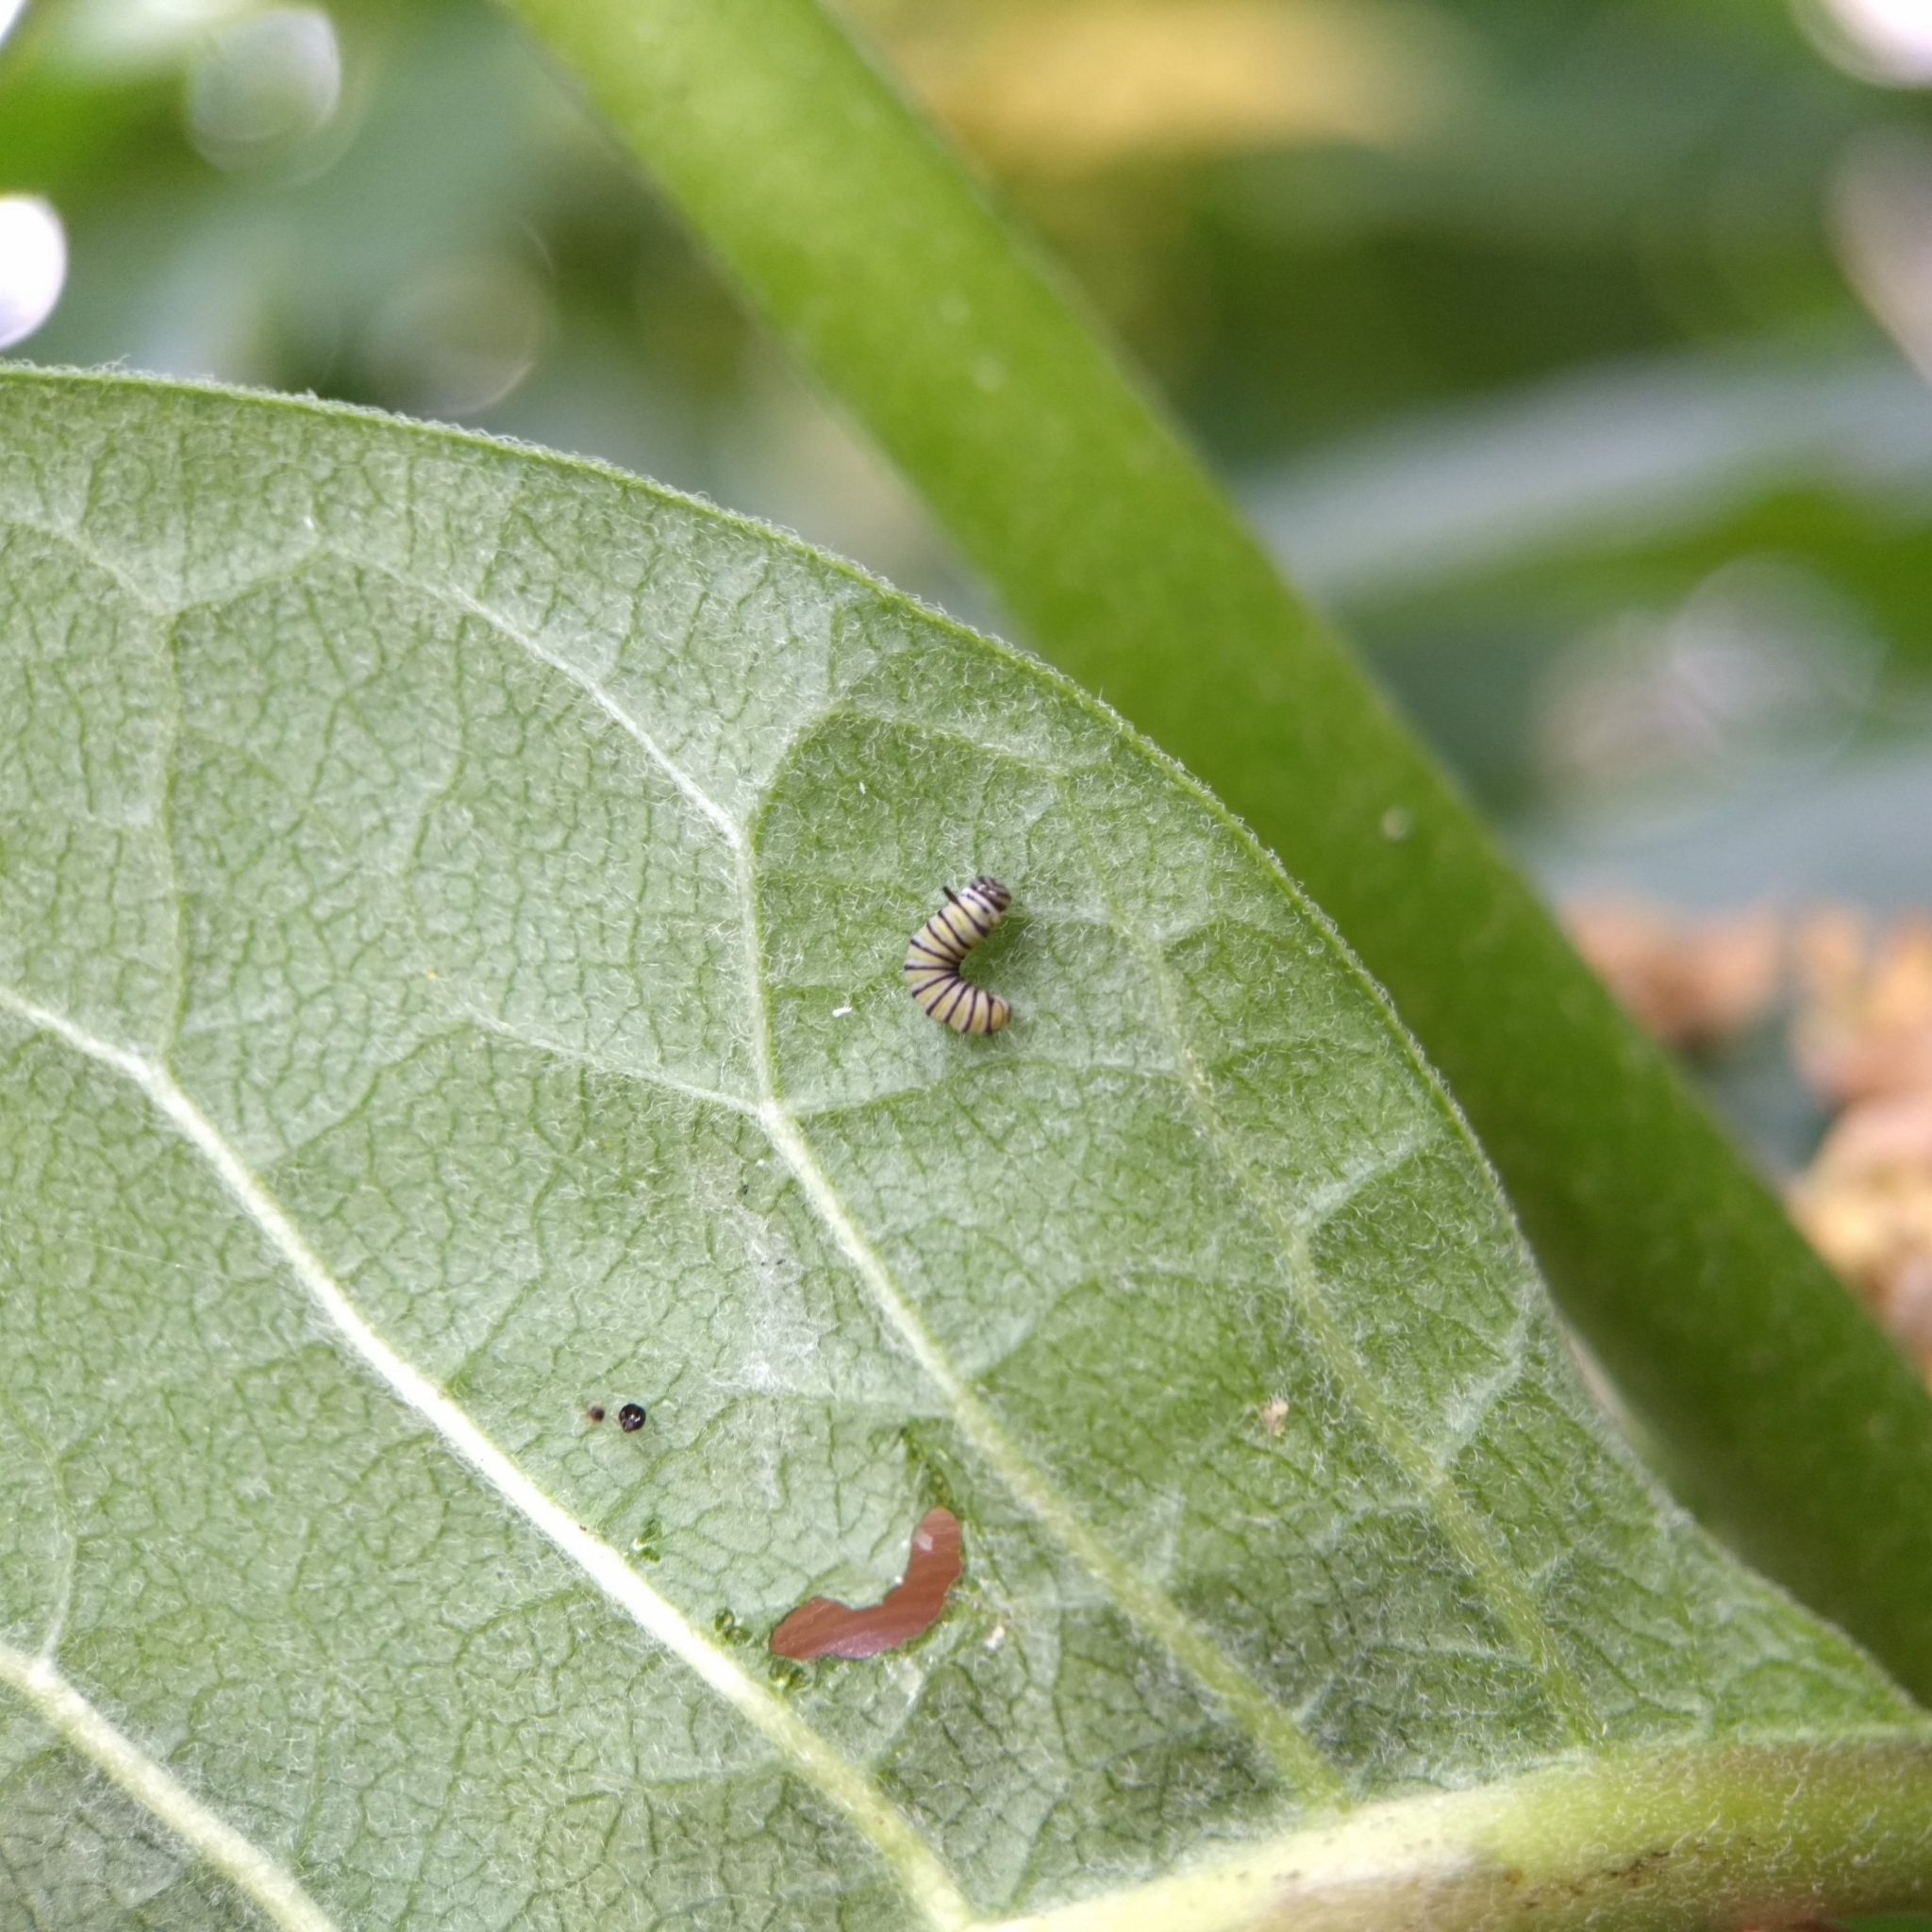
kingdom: Animalia
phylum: Arthropoda
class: Insecta
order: Lepidoptera
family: Nymphalidae
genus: Danaus
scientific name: Danaus plexippus
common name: Monarch
